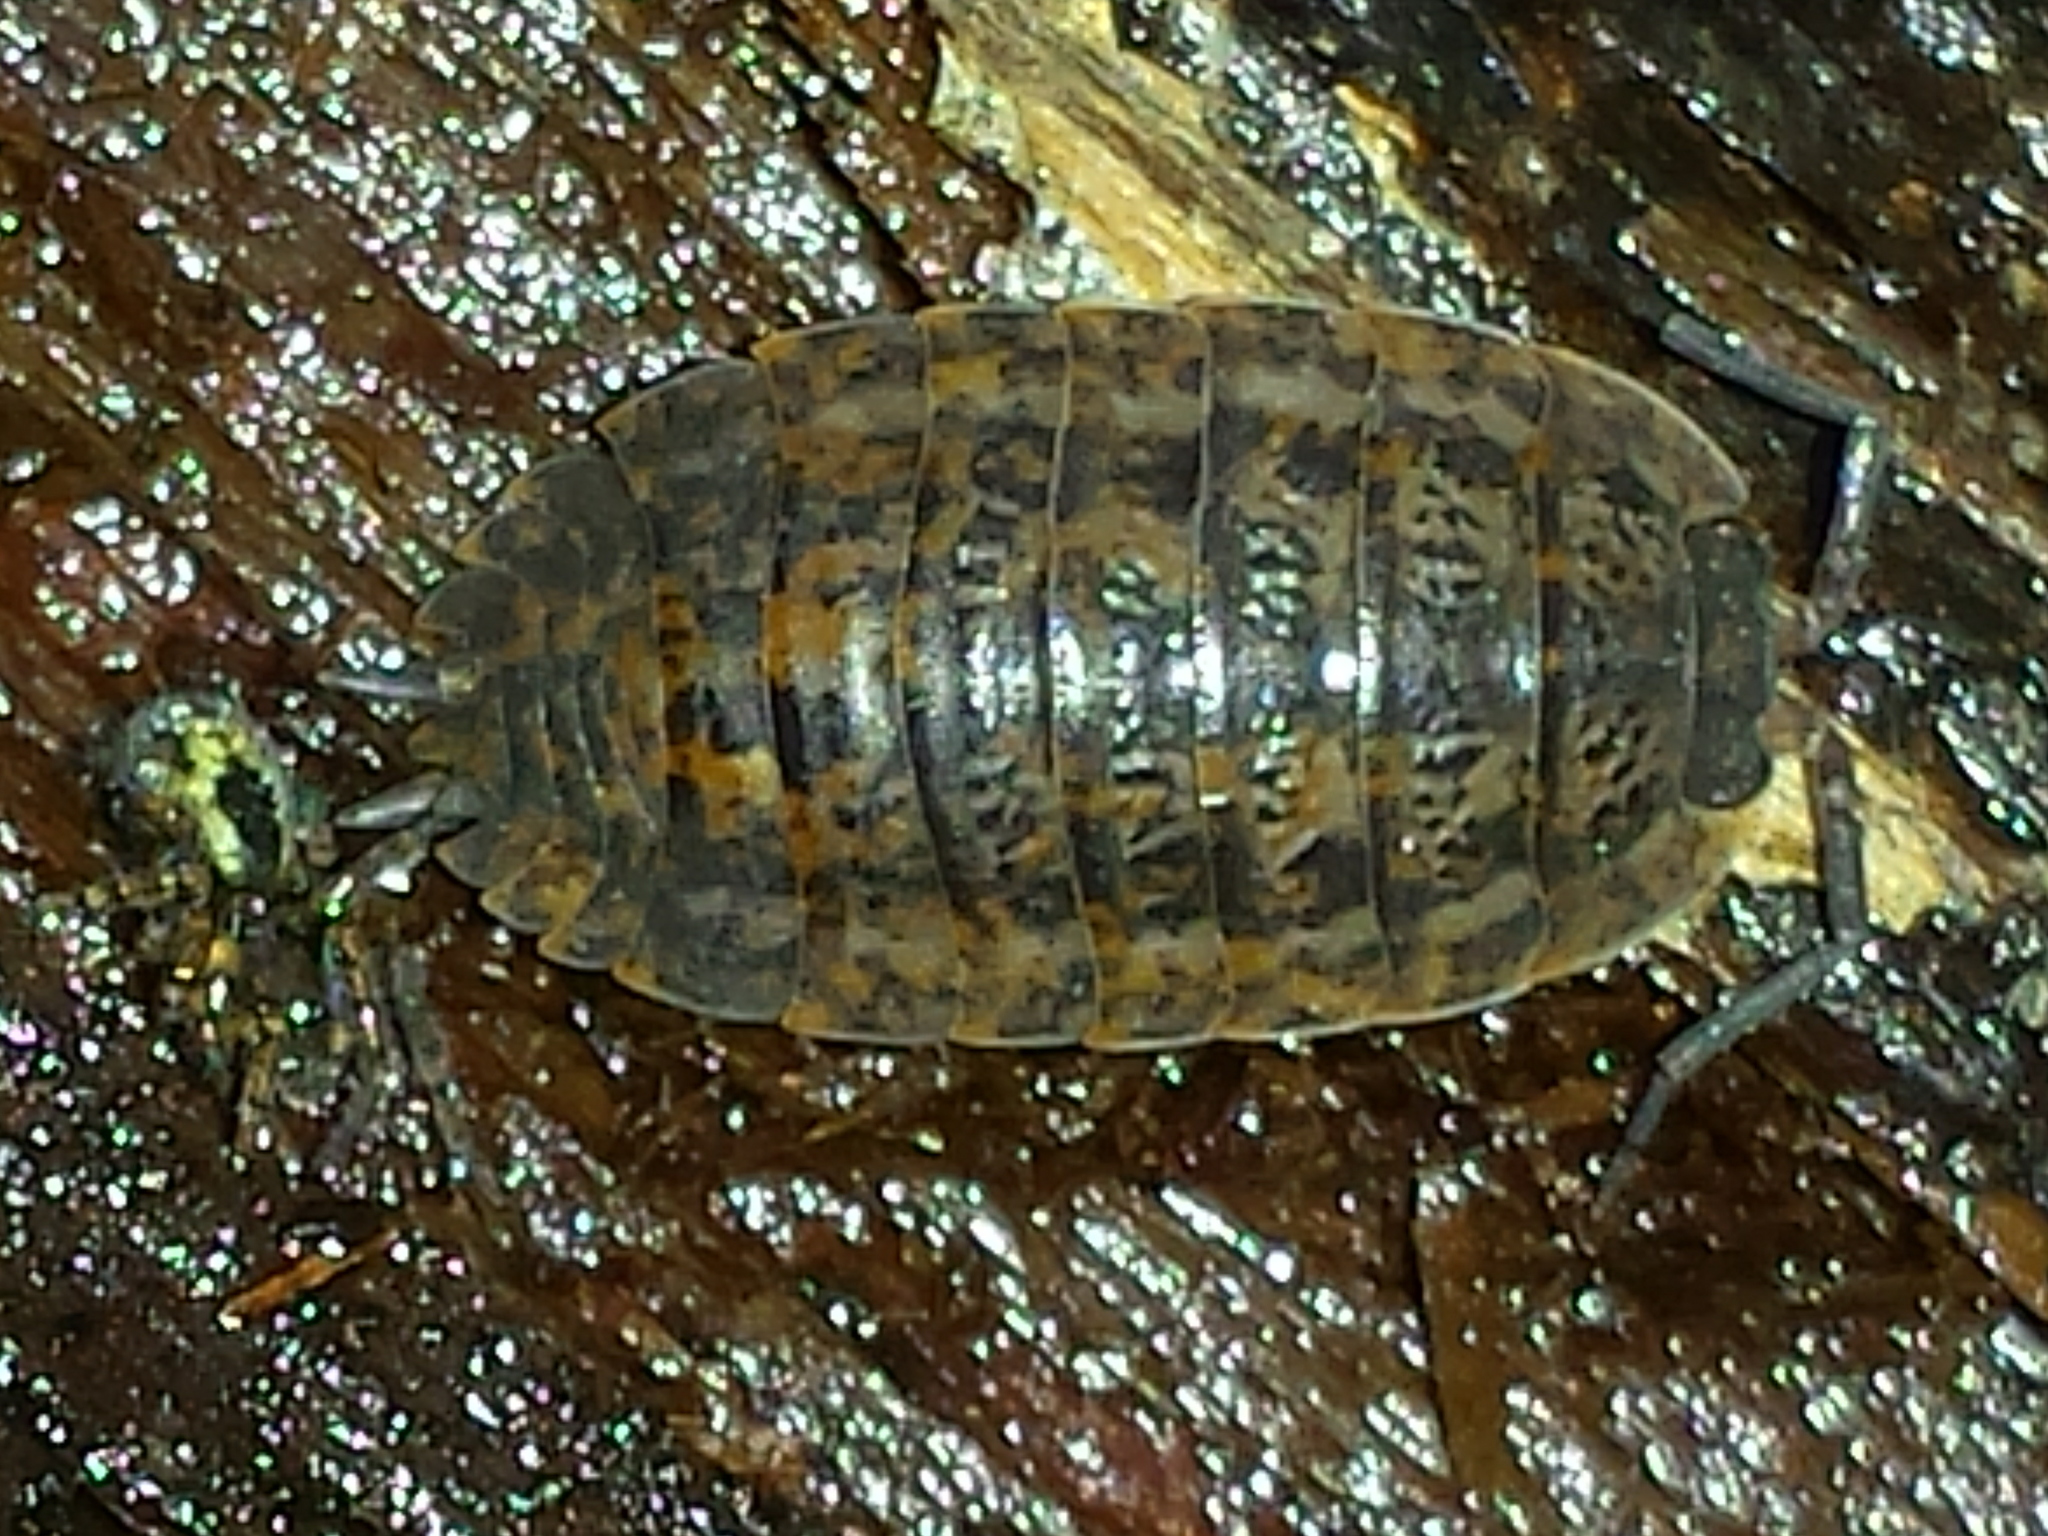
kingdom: Animalia
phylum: Arthropoda
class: Malacostraca
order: Isopoda
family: Trachelipodidae
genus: Trachelipus
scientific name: Trachelipus rathkii
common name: Isopod
